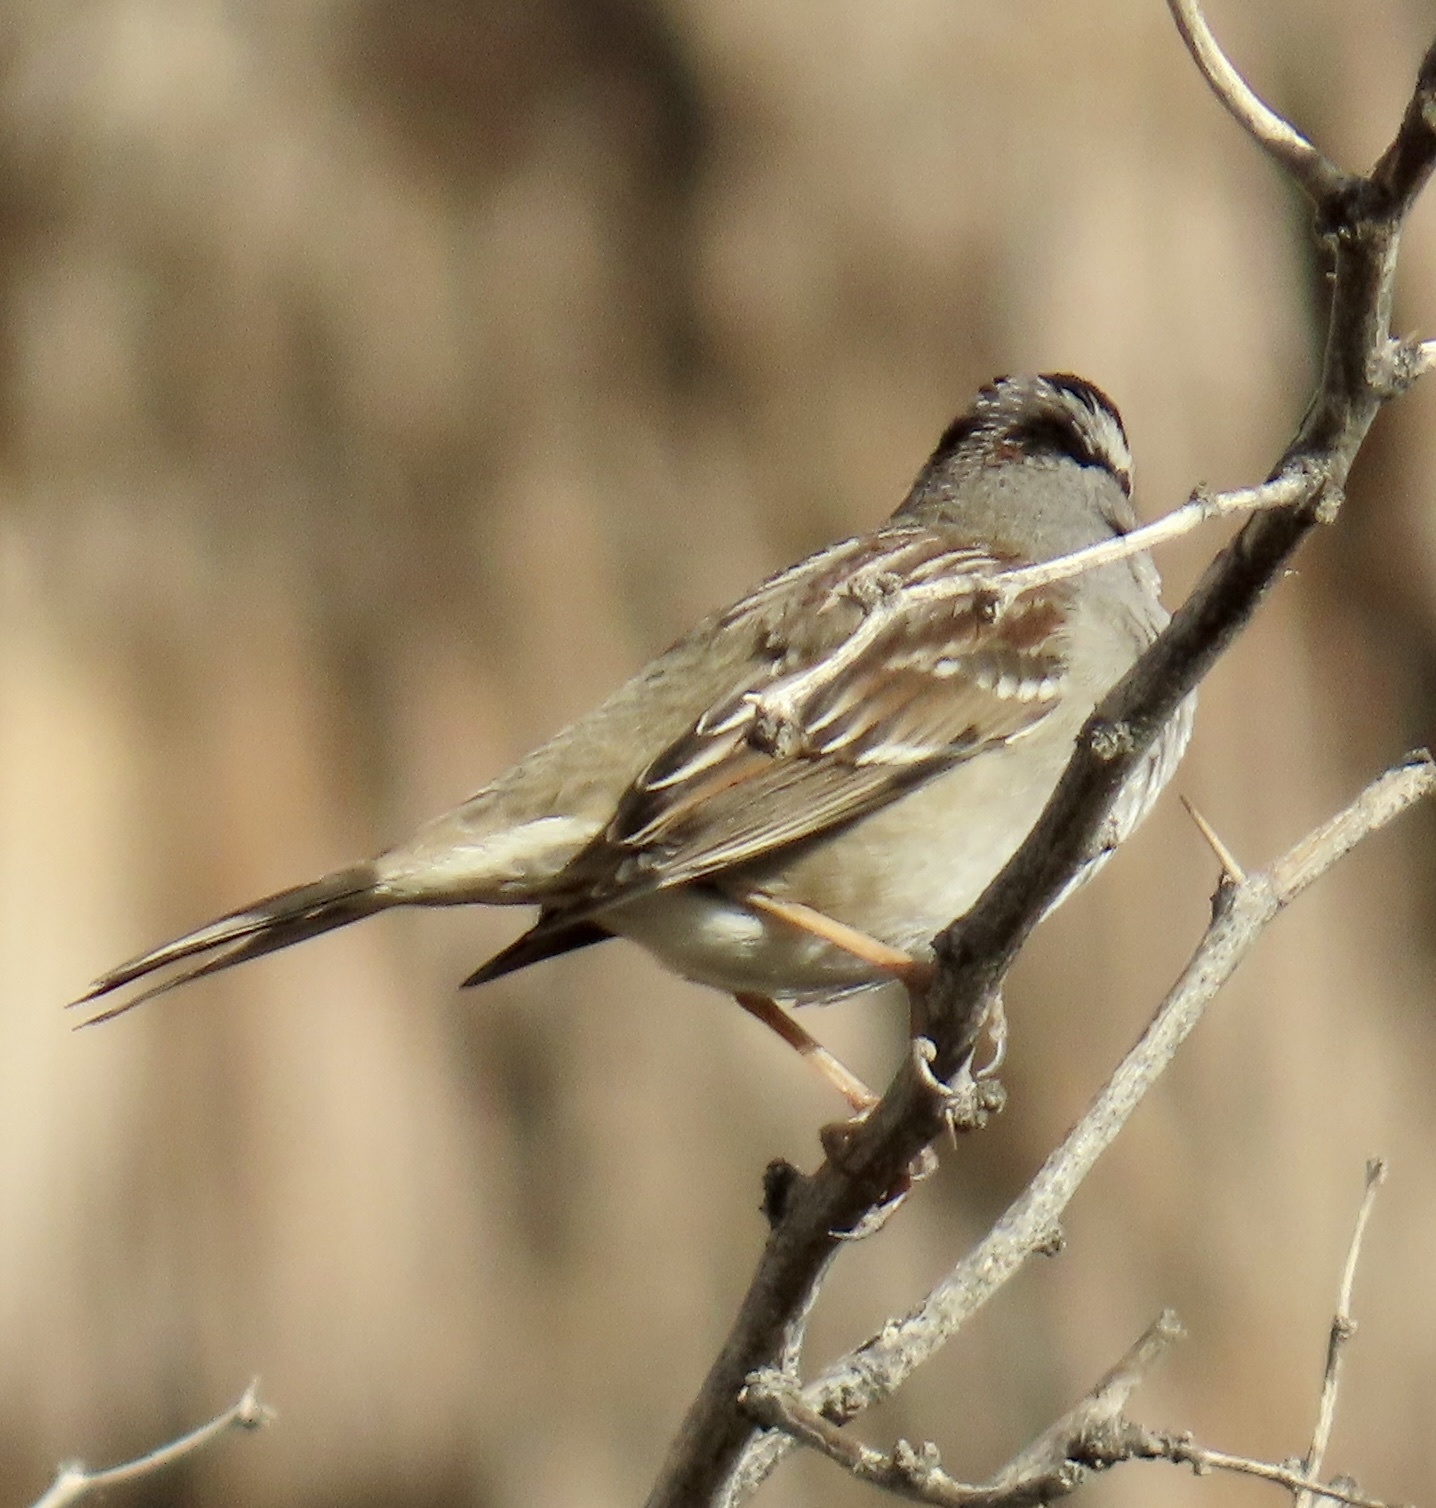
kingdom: Animalia
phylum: Chordata
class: Aves
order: Passeriformes
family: Passerellidae
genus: Zonotrichia
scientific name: Zonotrichia leucophrys
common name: White-crowned sparrow
